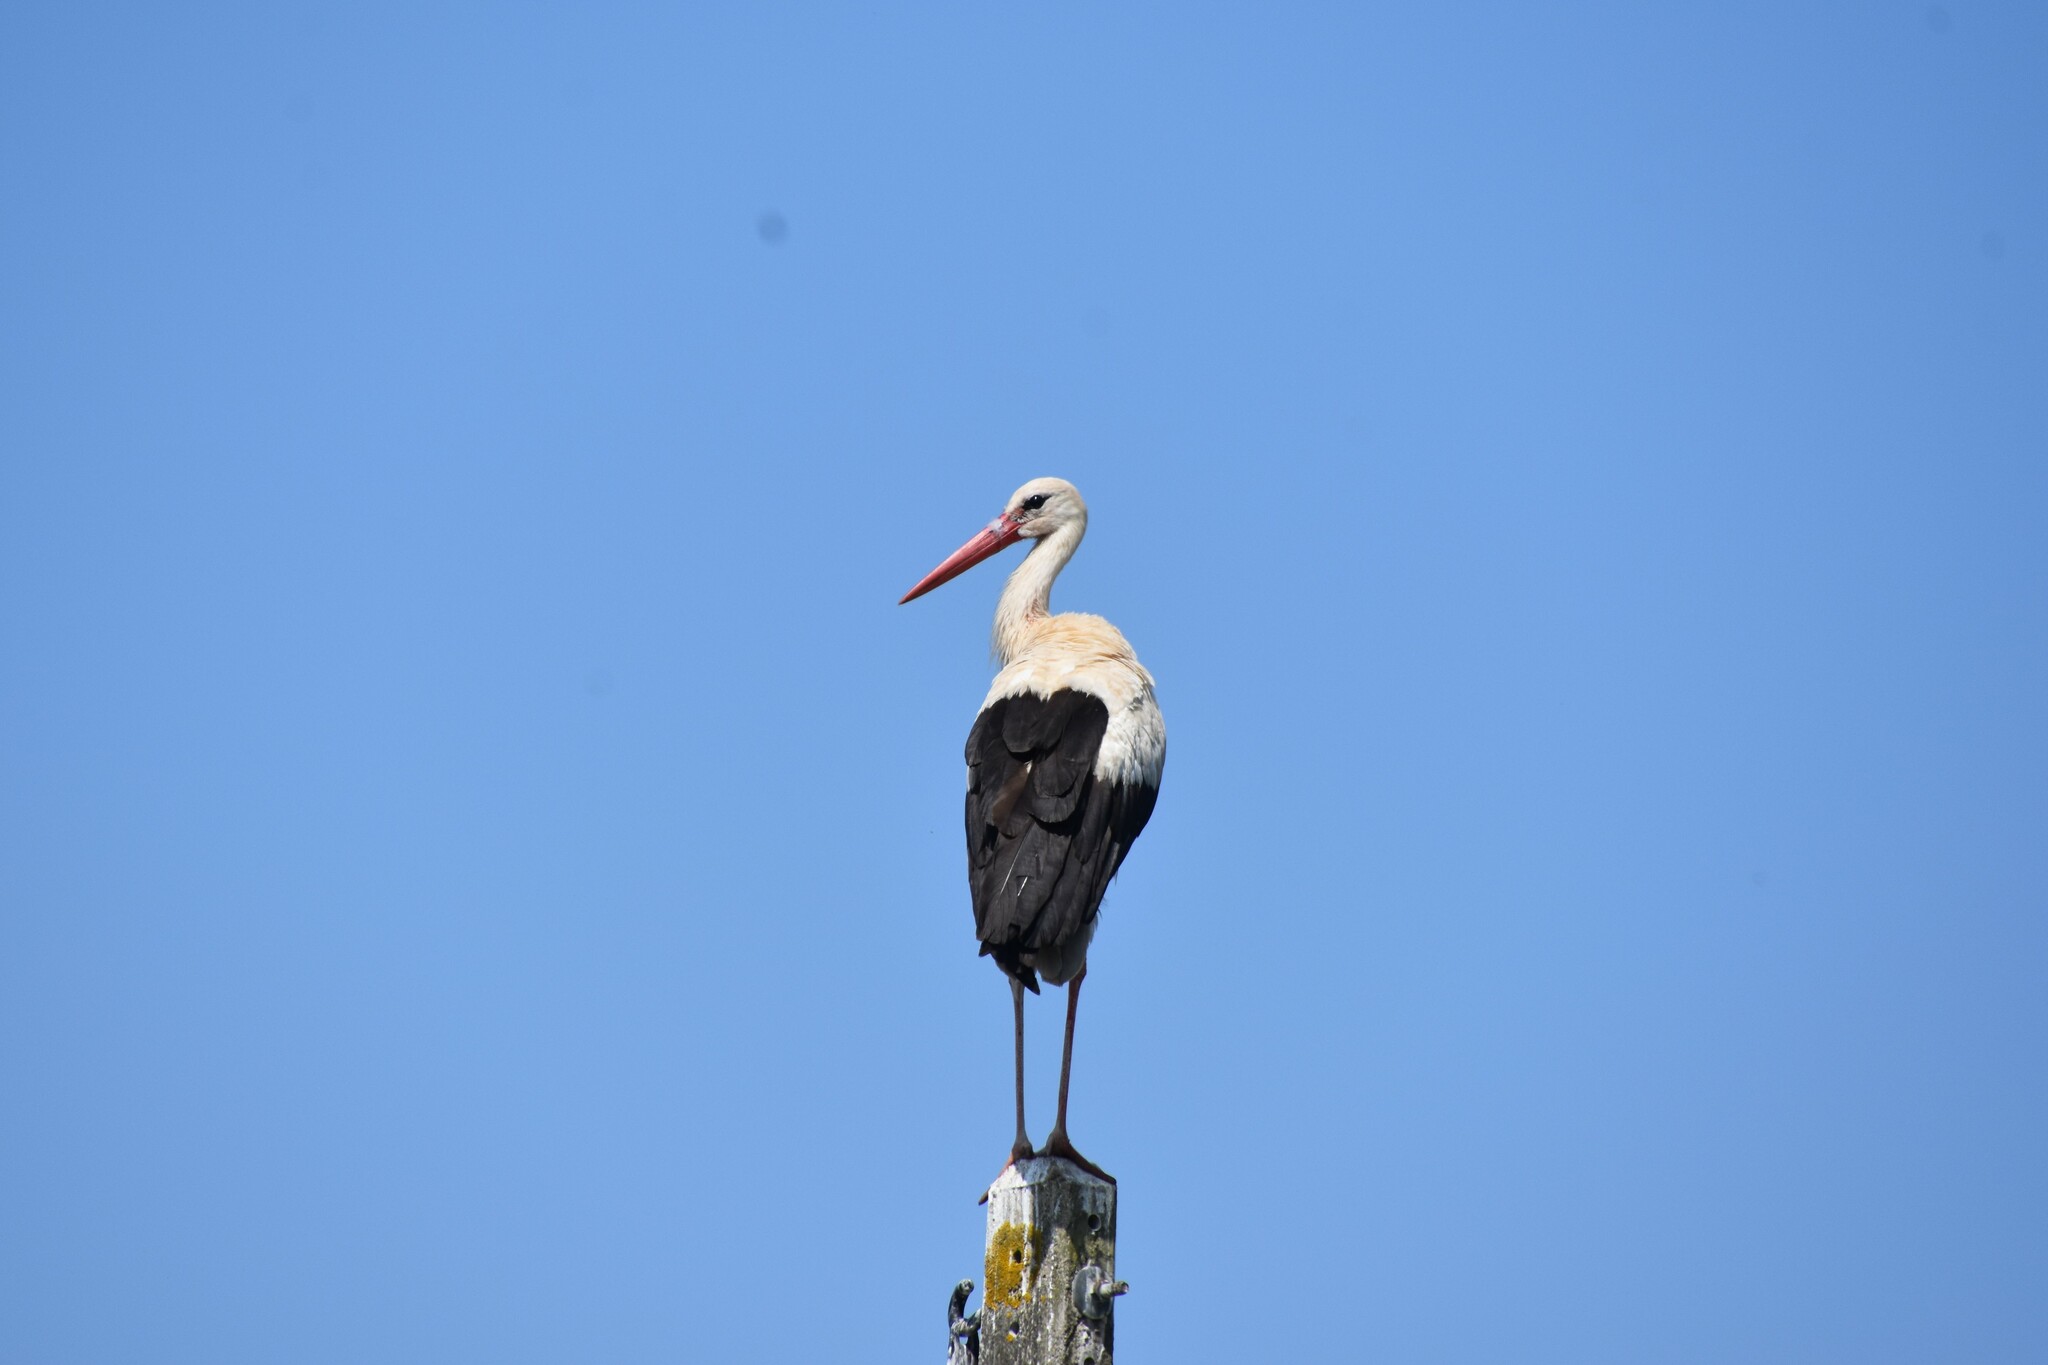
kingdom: Animalia
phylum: Chordata
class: Aves
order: Ciconiiformes
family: Ciconiidae
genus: Ciconia
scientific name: Ciconia ciconia
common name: White stork
